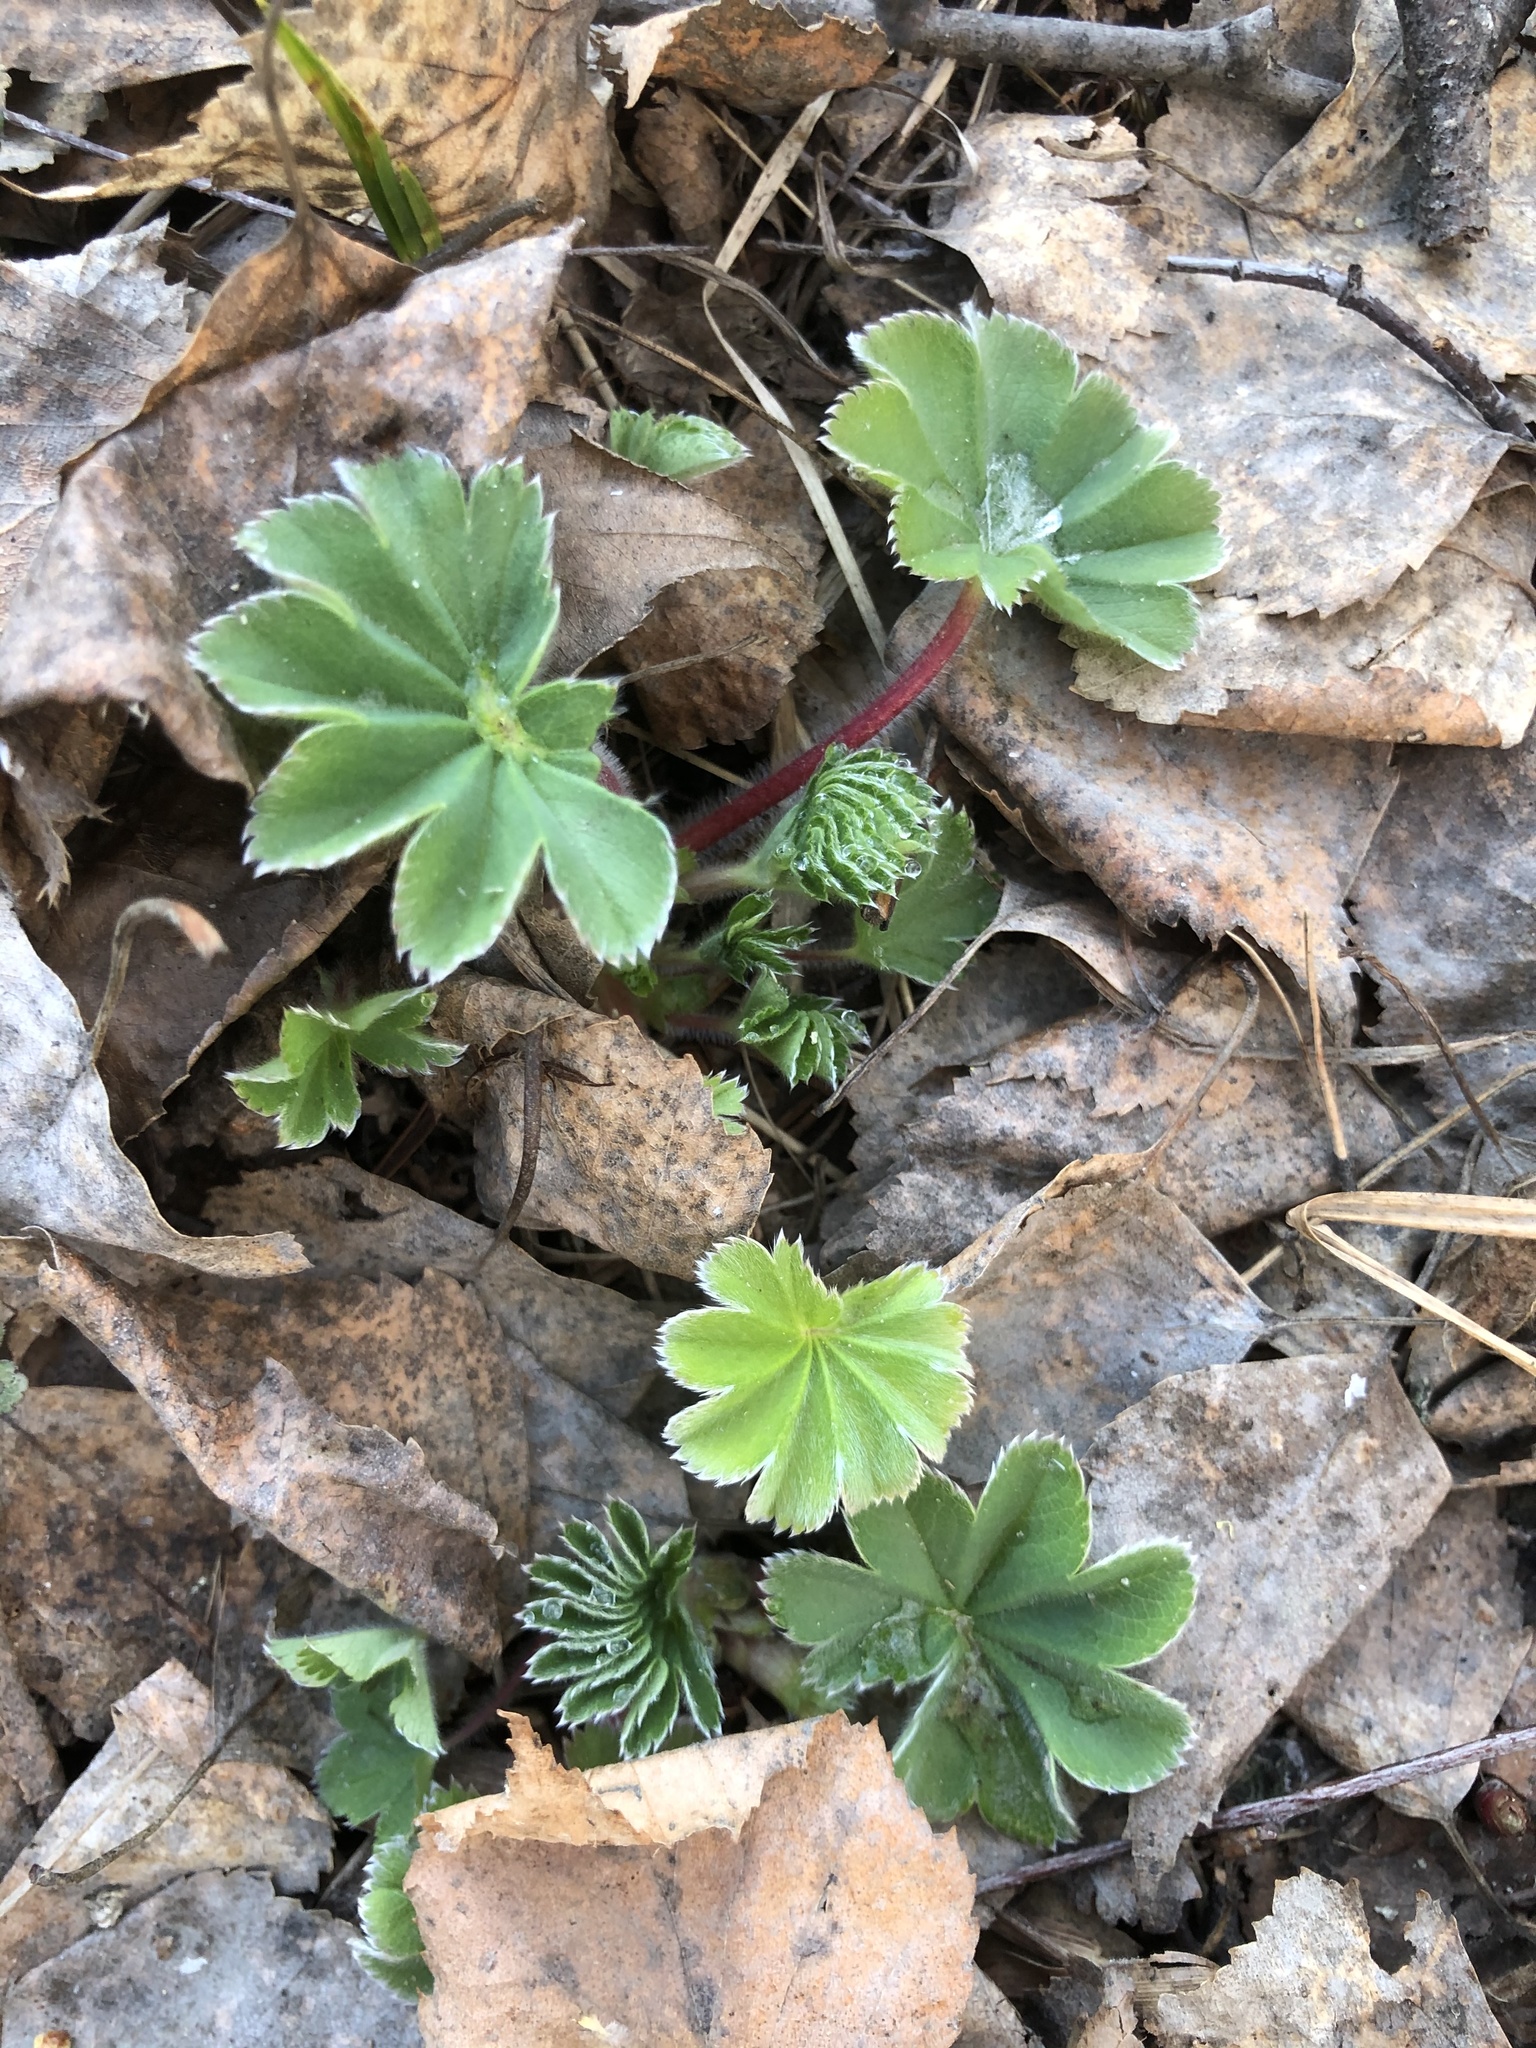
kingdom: Plantae
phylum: Tracheophyta
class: Magnoliopsida
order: Rosales
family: Rosaceae
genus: Alchemilla
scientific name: Alchemilla
